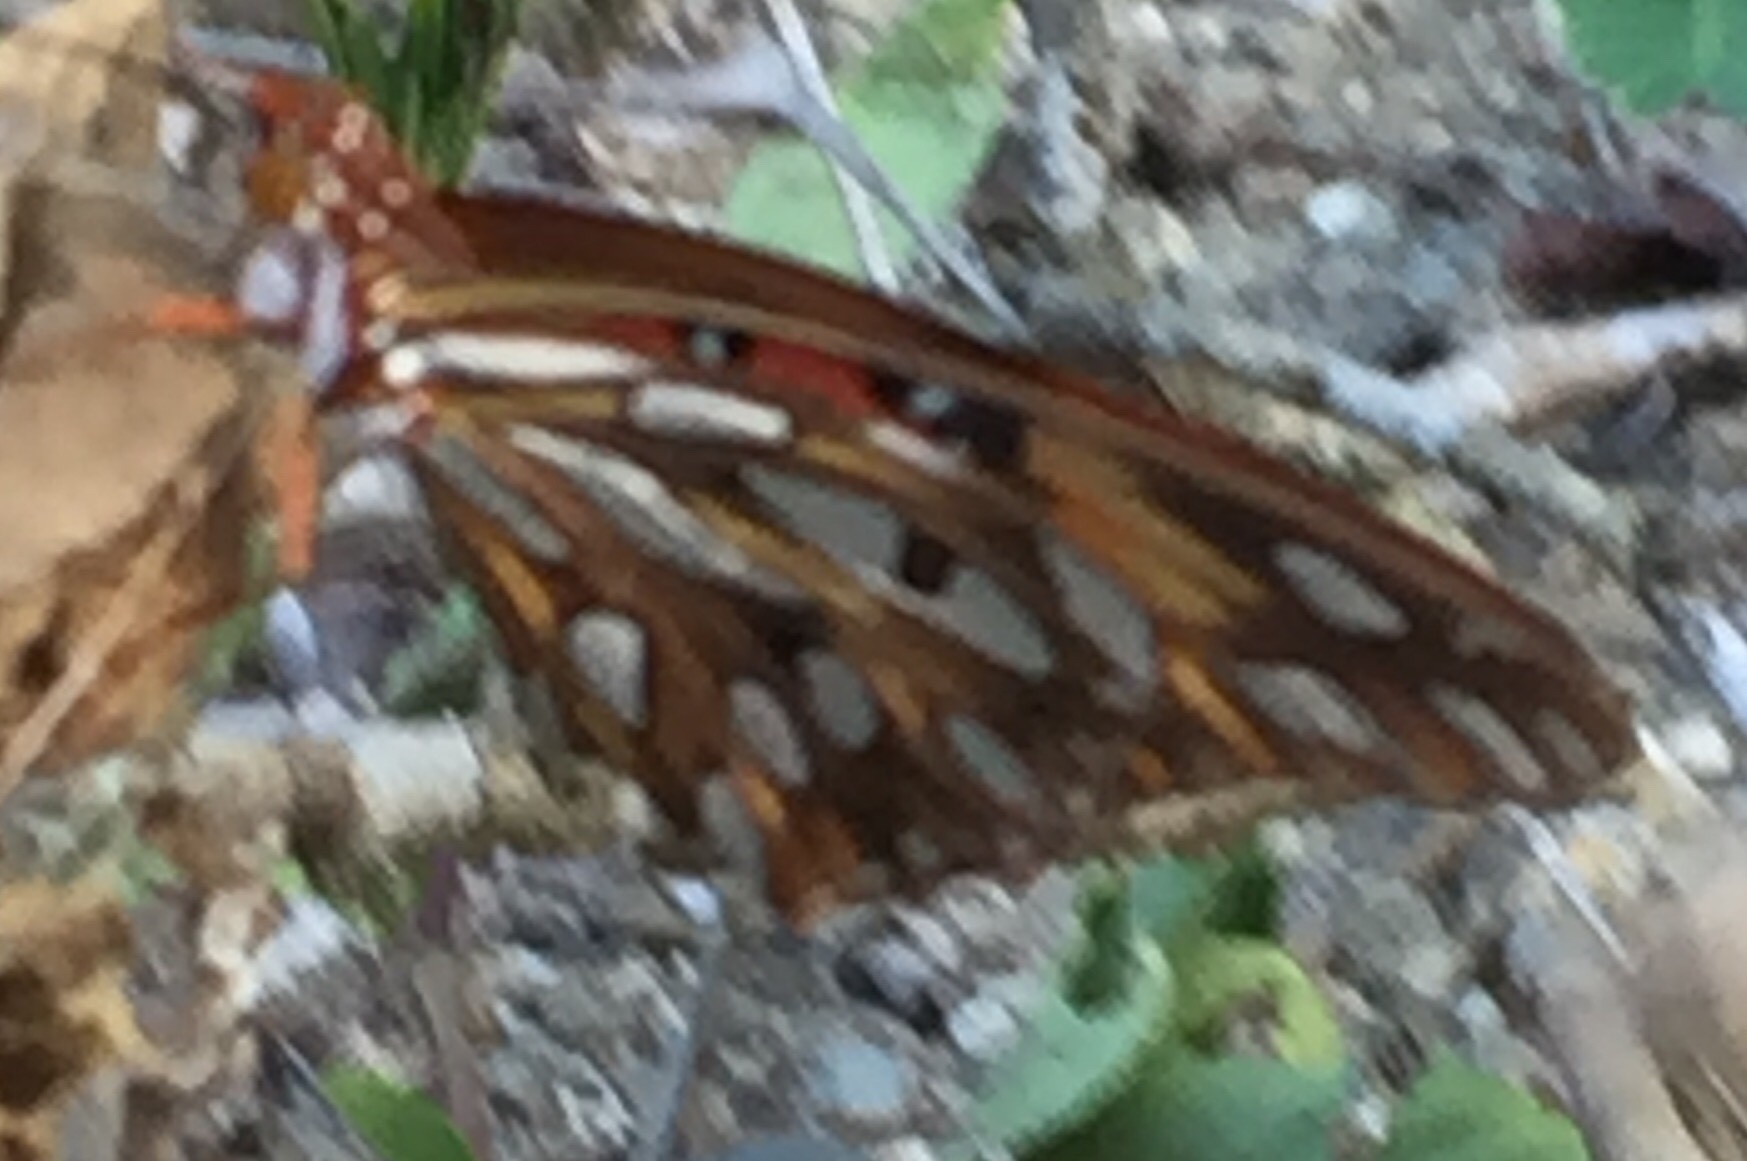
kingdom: Animalia
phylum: Arthropoda
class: Insecta
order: Lepidoptera
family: Nymphalidae
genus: Dione
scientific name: Dione vanillae
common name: Gulf fritillary
